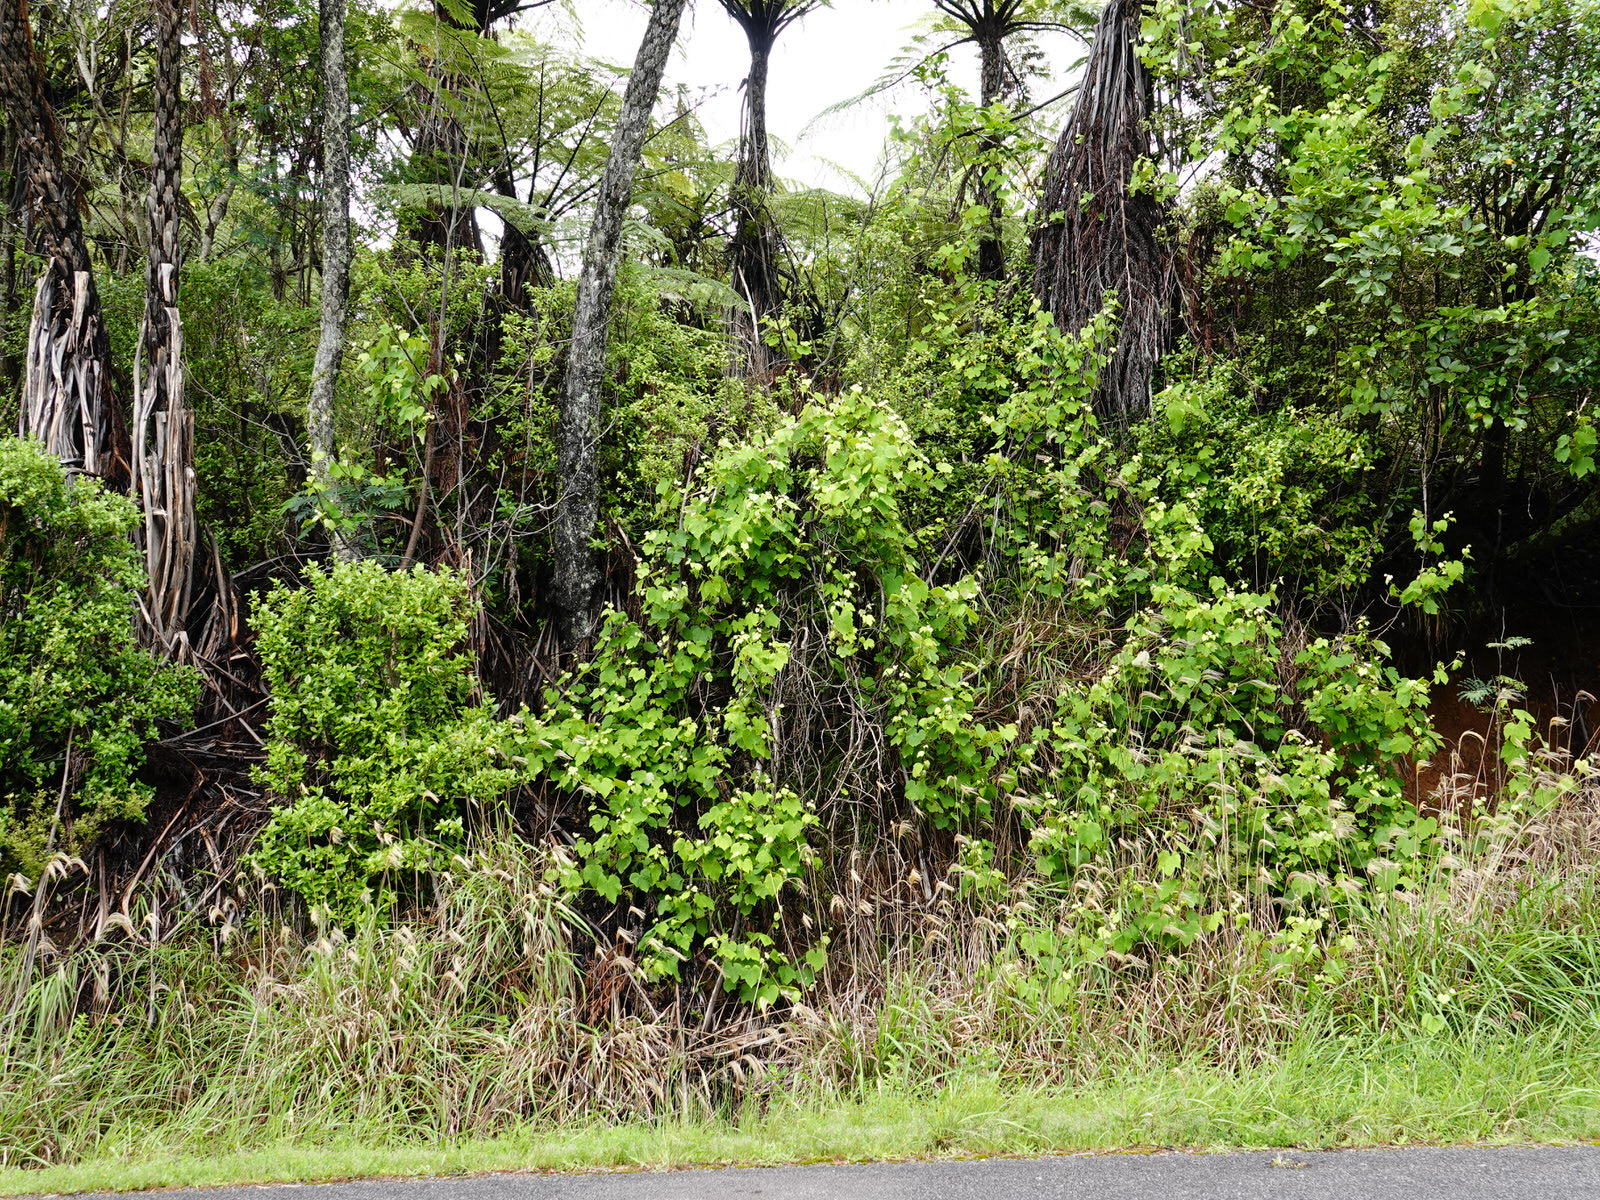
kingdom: Plantae
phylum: Tracheophyta
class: Magnoliopsida
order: Vitales
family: Vitaceae
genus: Vitis
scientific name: Vitis vinifera
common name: Grape-vine
